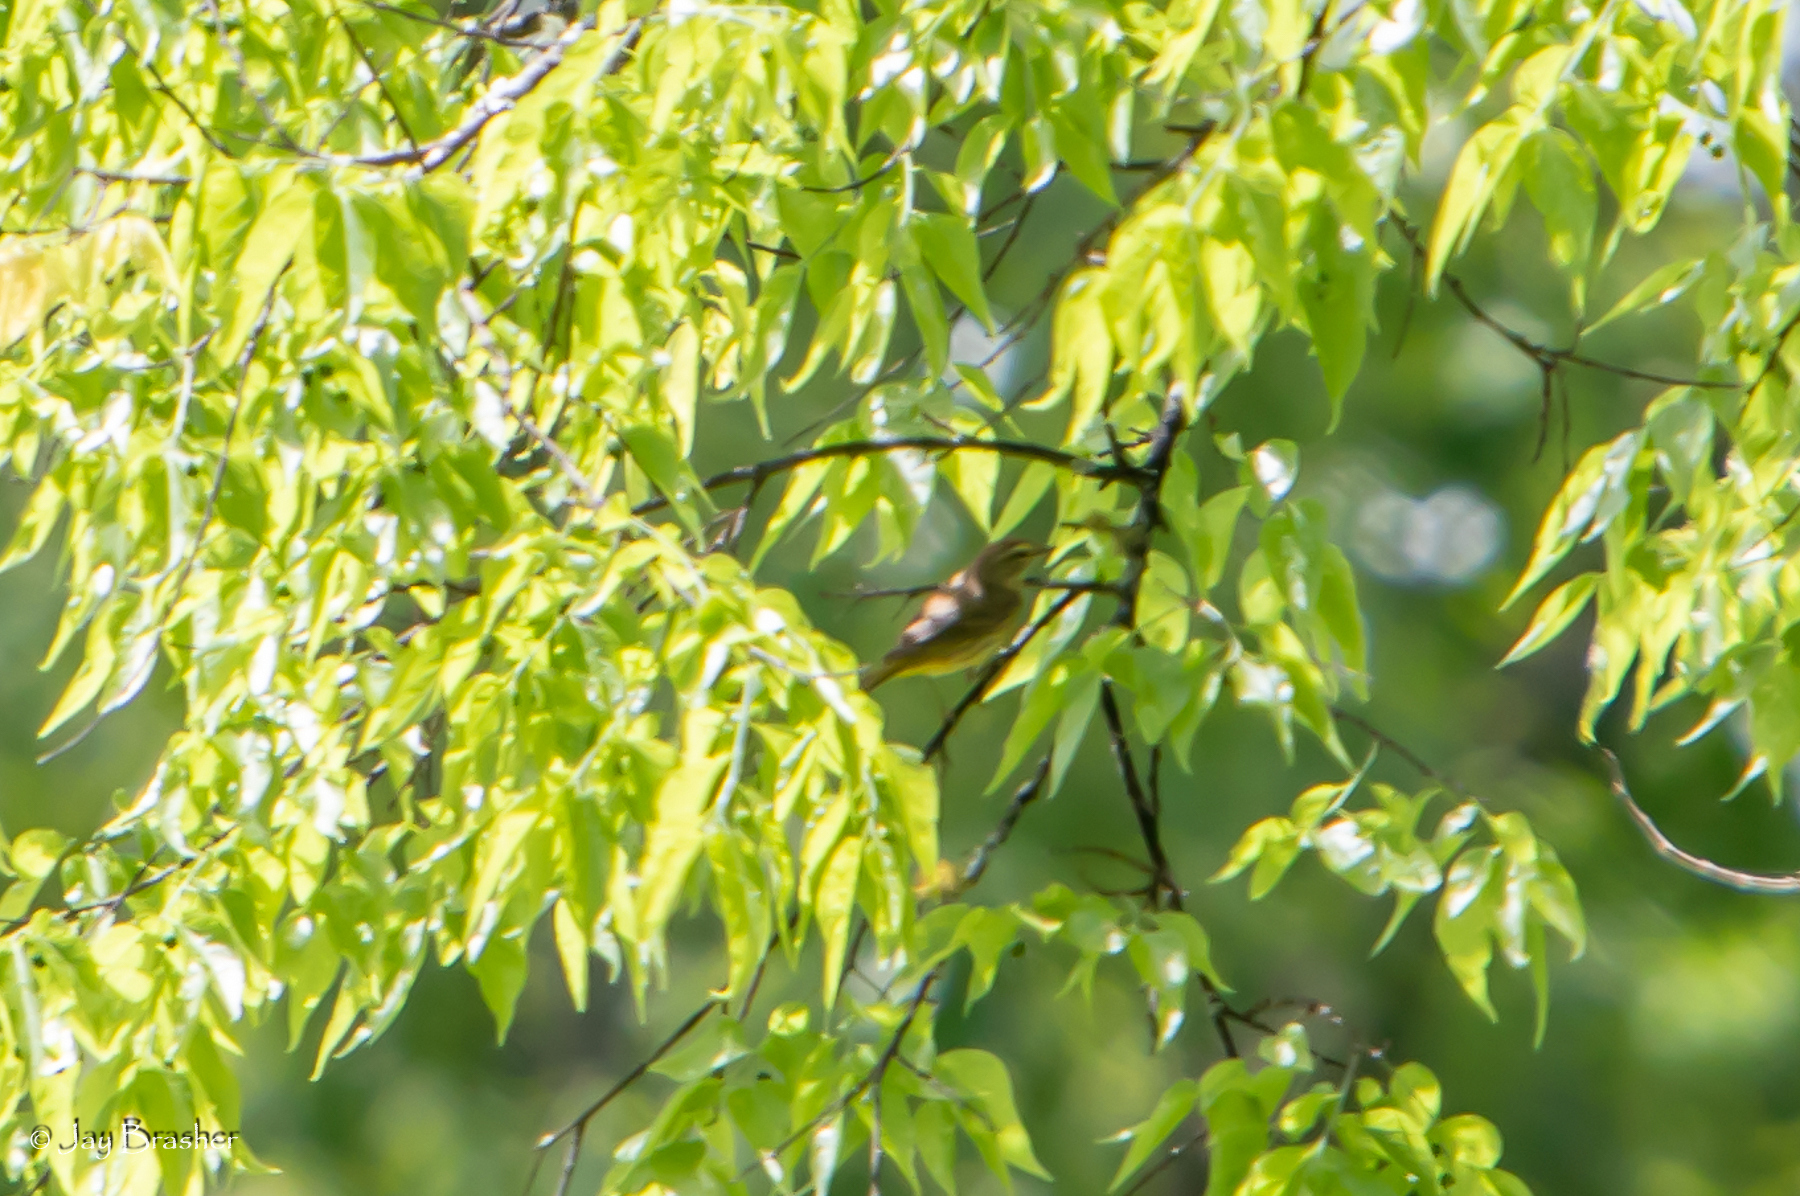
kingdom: Animalia
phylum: Chordata
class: Aves
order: Passeriformes
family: Parulidae
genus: Setophaga
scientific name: Setophaga palmarum
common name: Palm warbler
